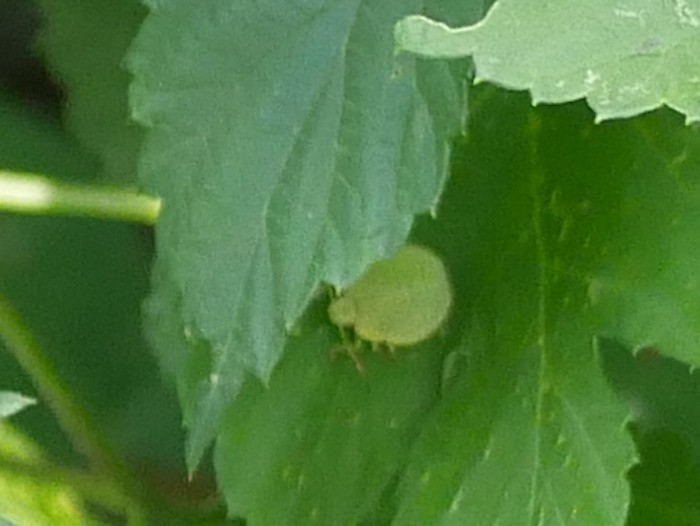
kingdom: Animalia
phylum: Arthropoda
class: Insecta
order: Hemiptera
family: Pentatomidae
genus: Palomena
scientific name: Palomena prasina
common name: Green shieldbug
